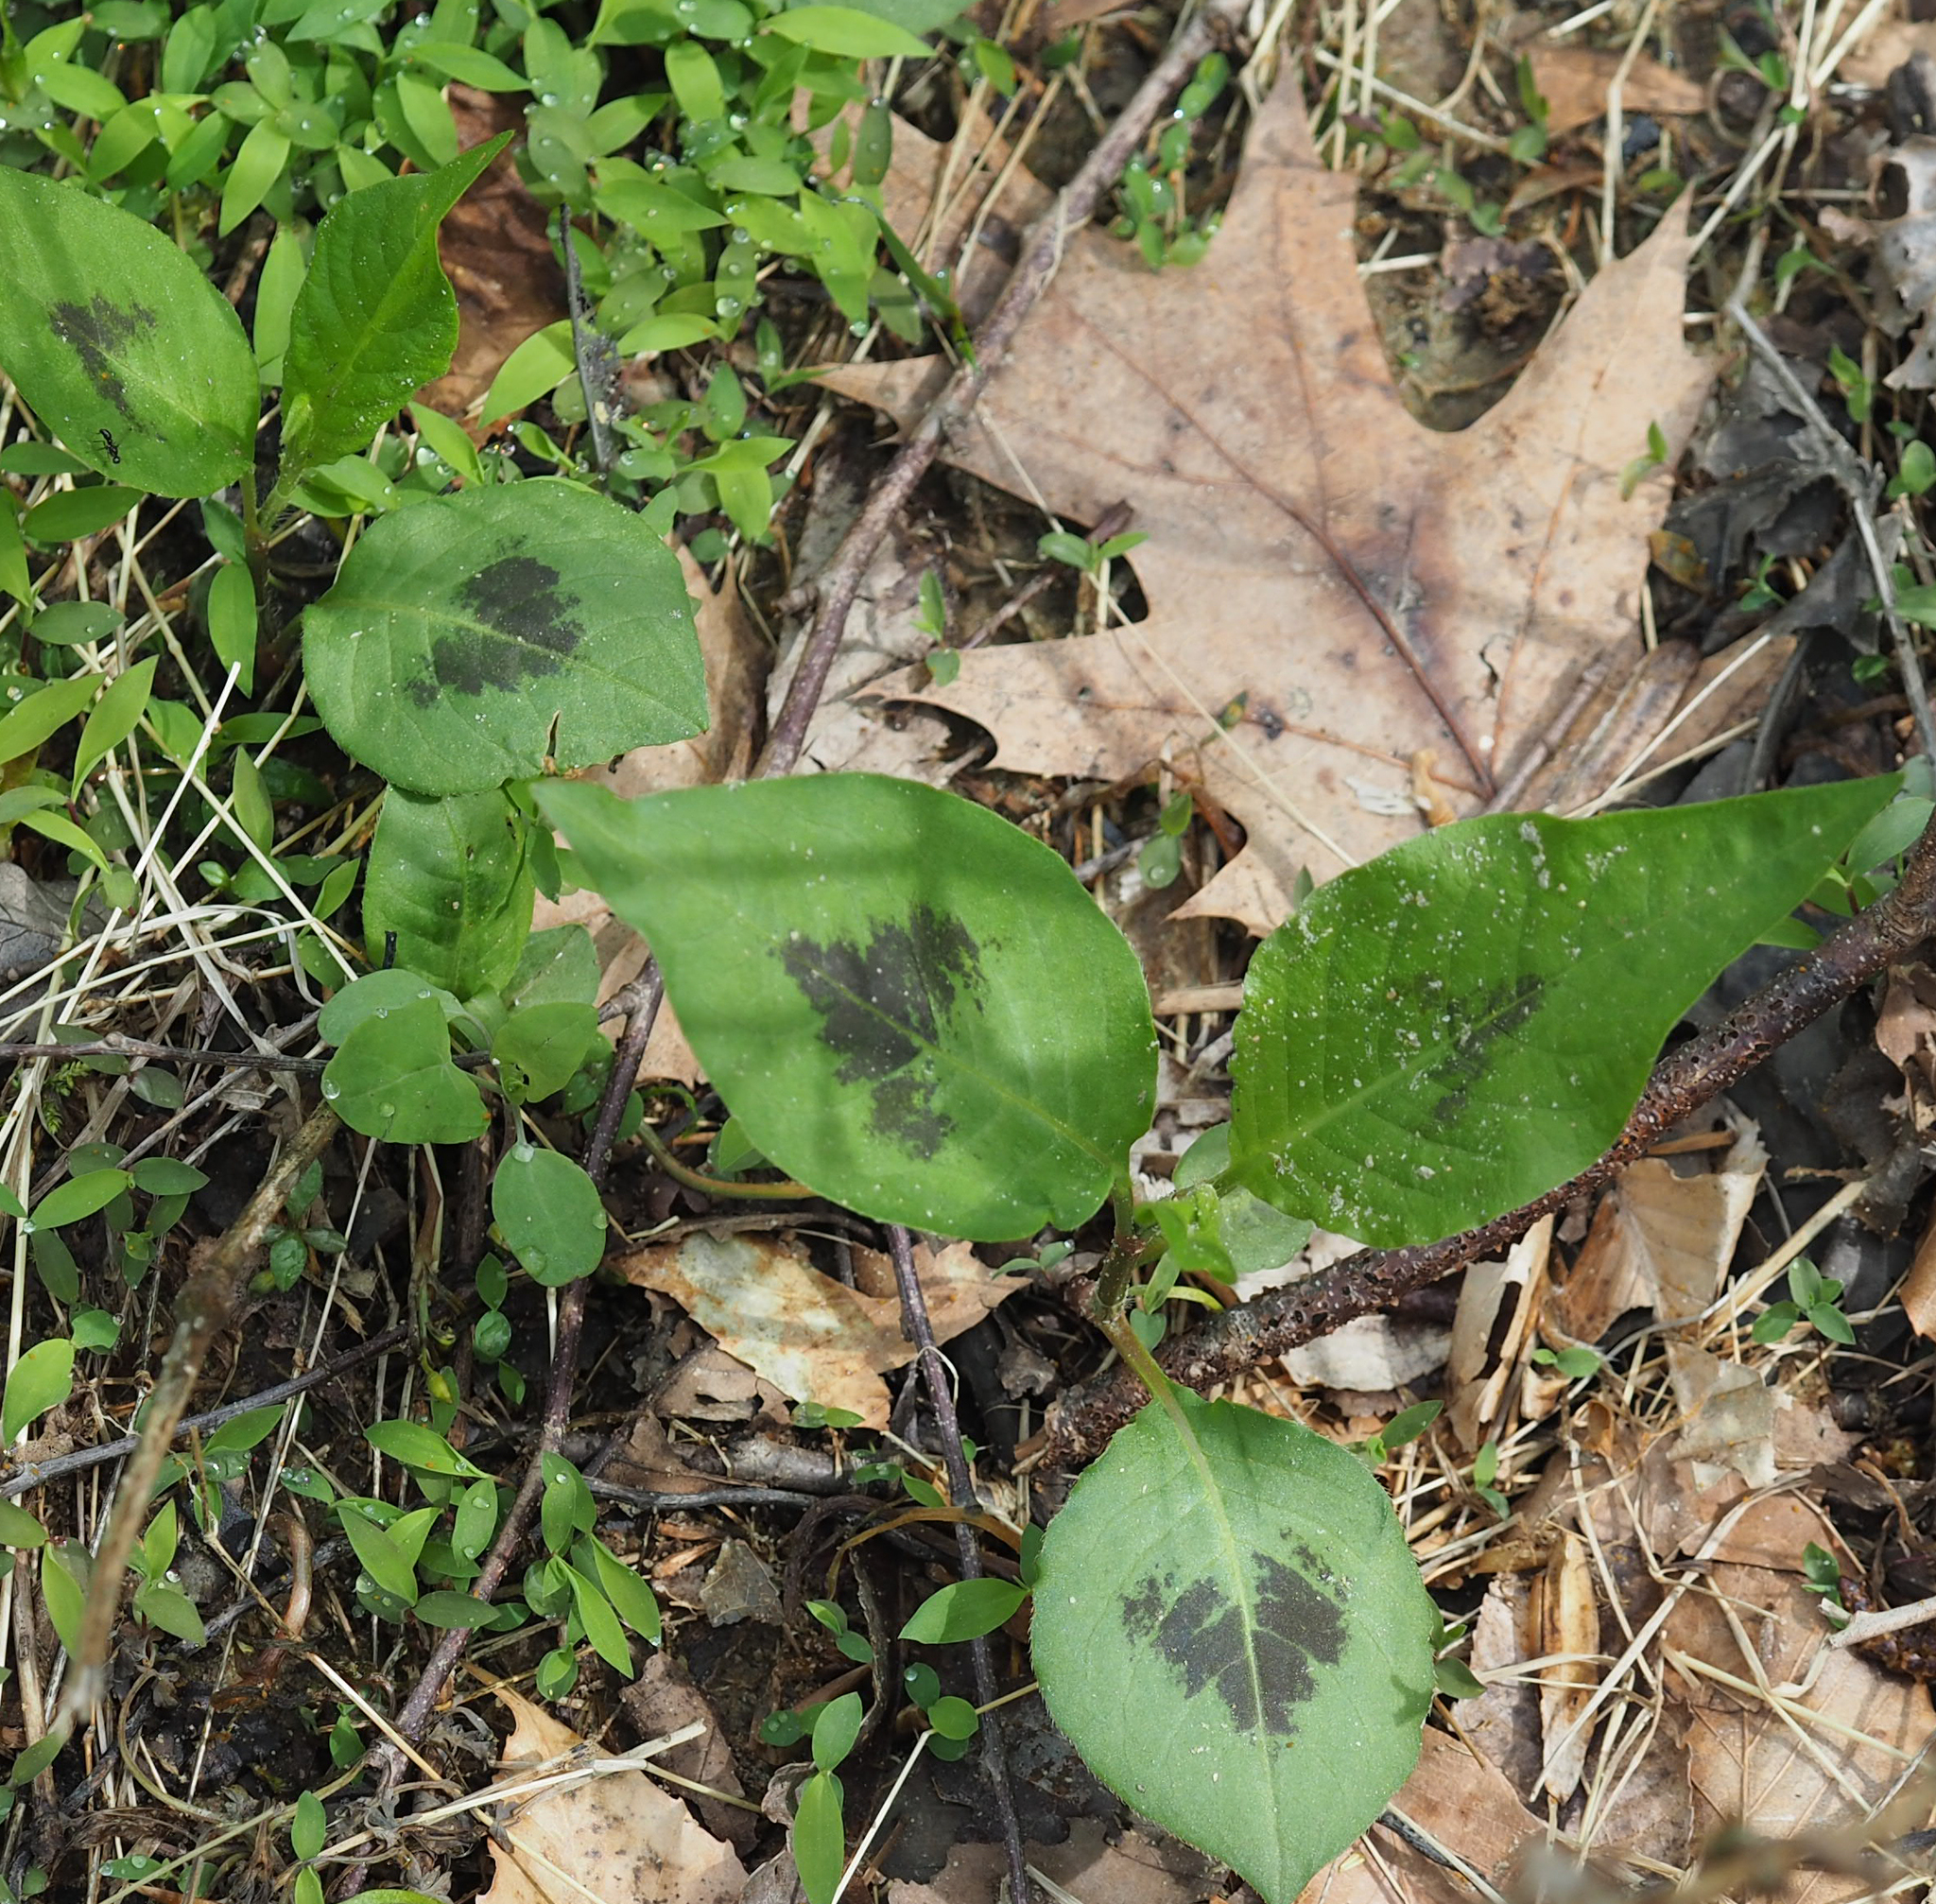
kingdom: Plantae
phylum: Tracheophyta
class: Magnoliopsida
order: Caryophyllales
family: Polygonaceae
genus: Persicaria
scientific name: Persicaria virginiana
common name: Jumpseed
